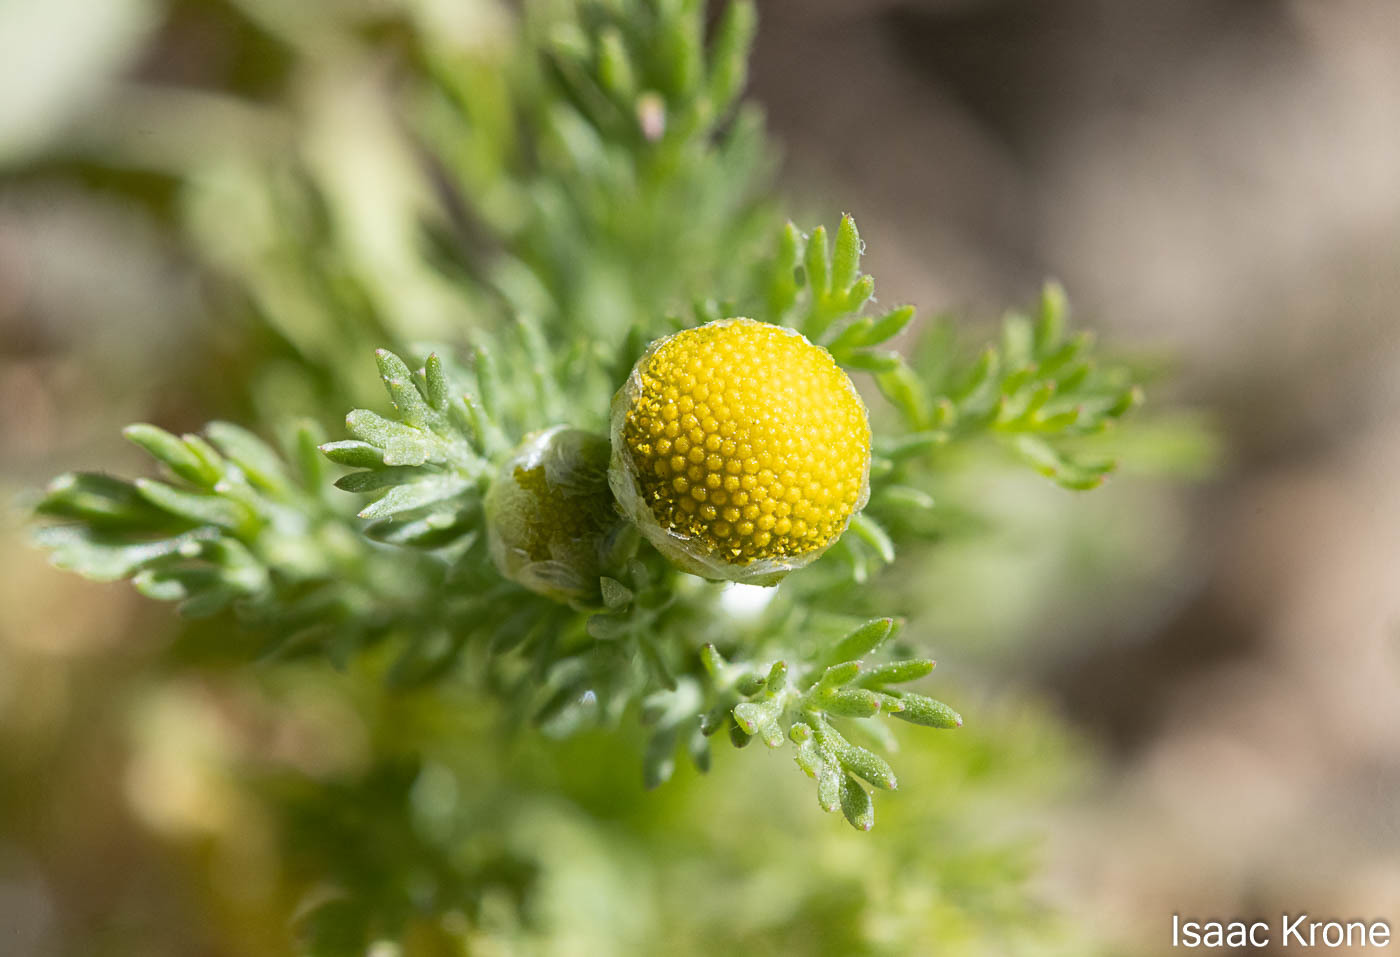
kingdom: Plantae
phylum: Tracheophyta
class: Magnoliopsida
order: Asterales
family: Asteraceae
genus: Matricaria
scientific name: Matricaria discoidea
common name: Disc mayweed
